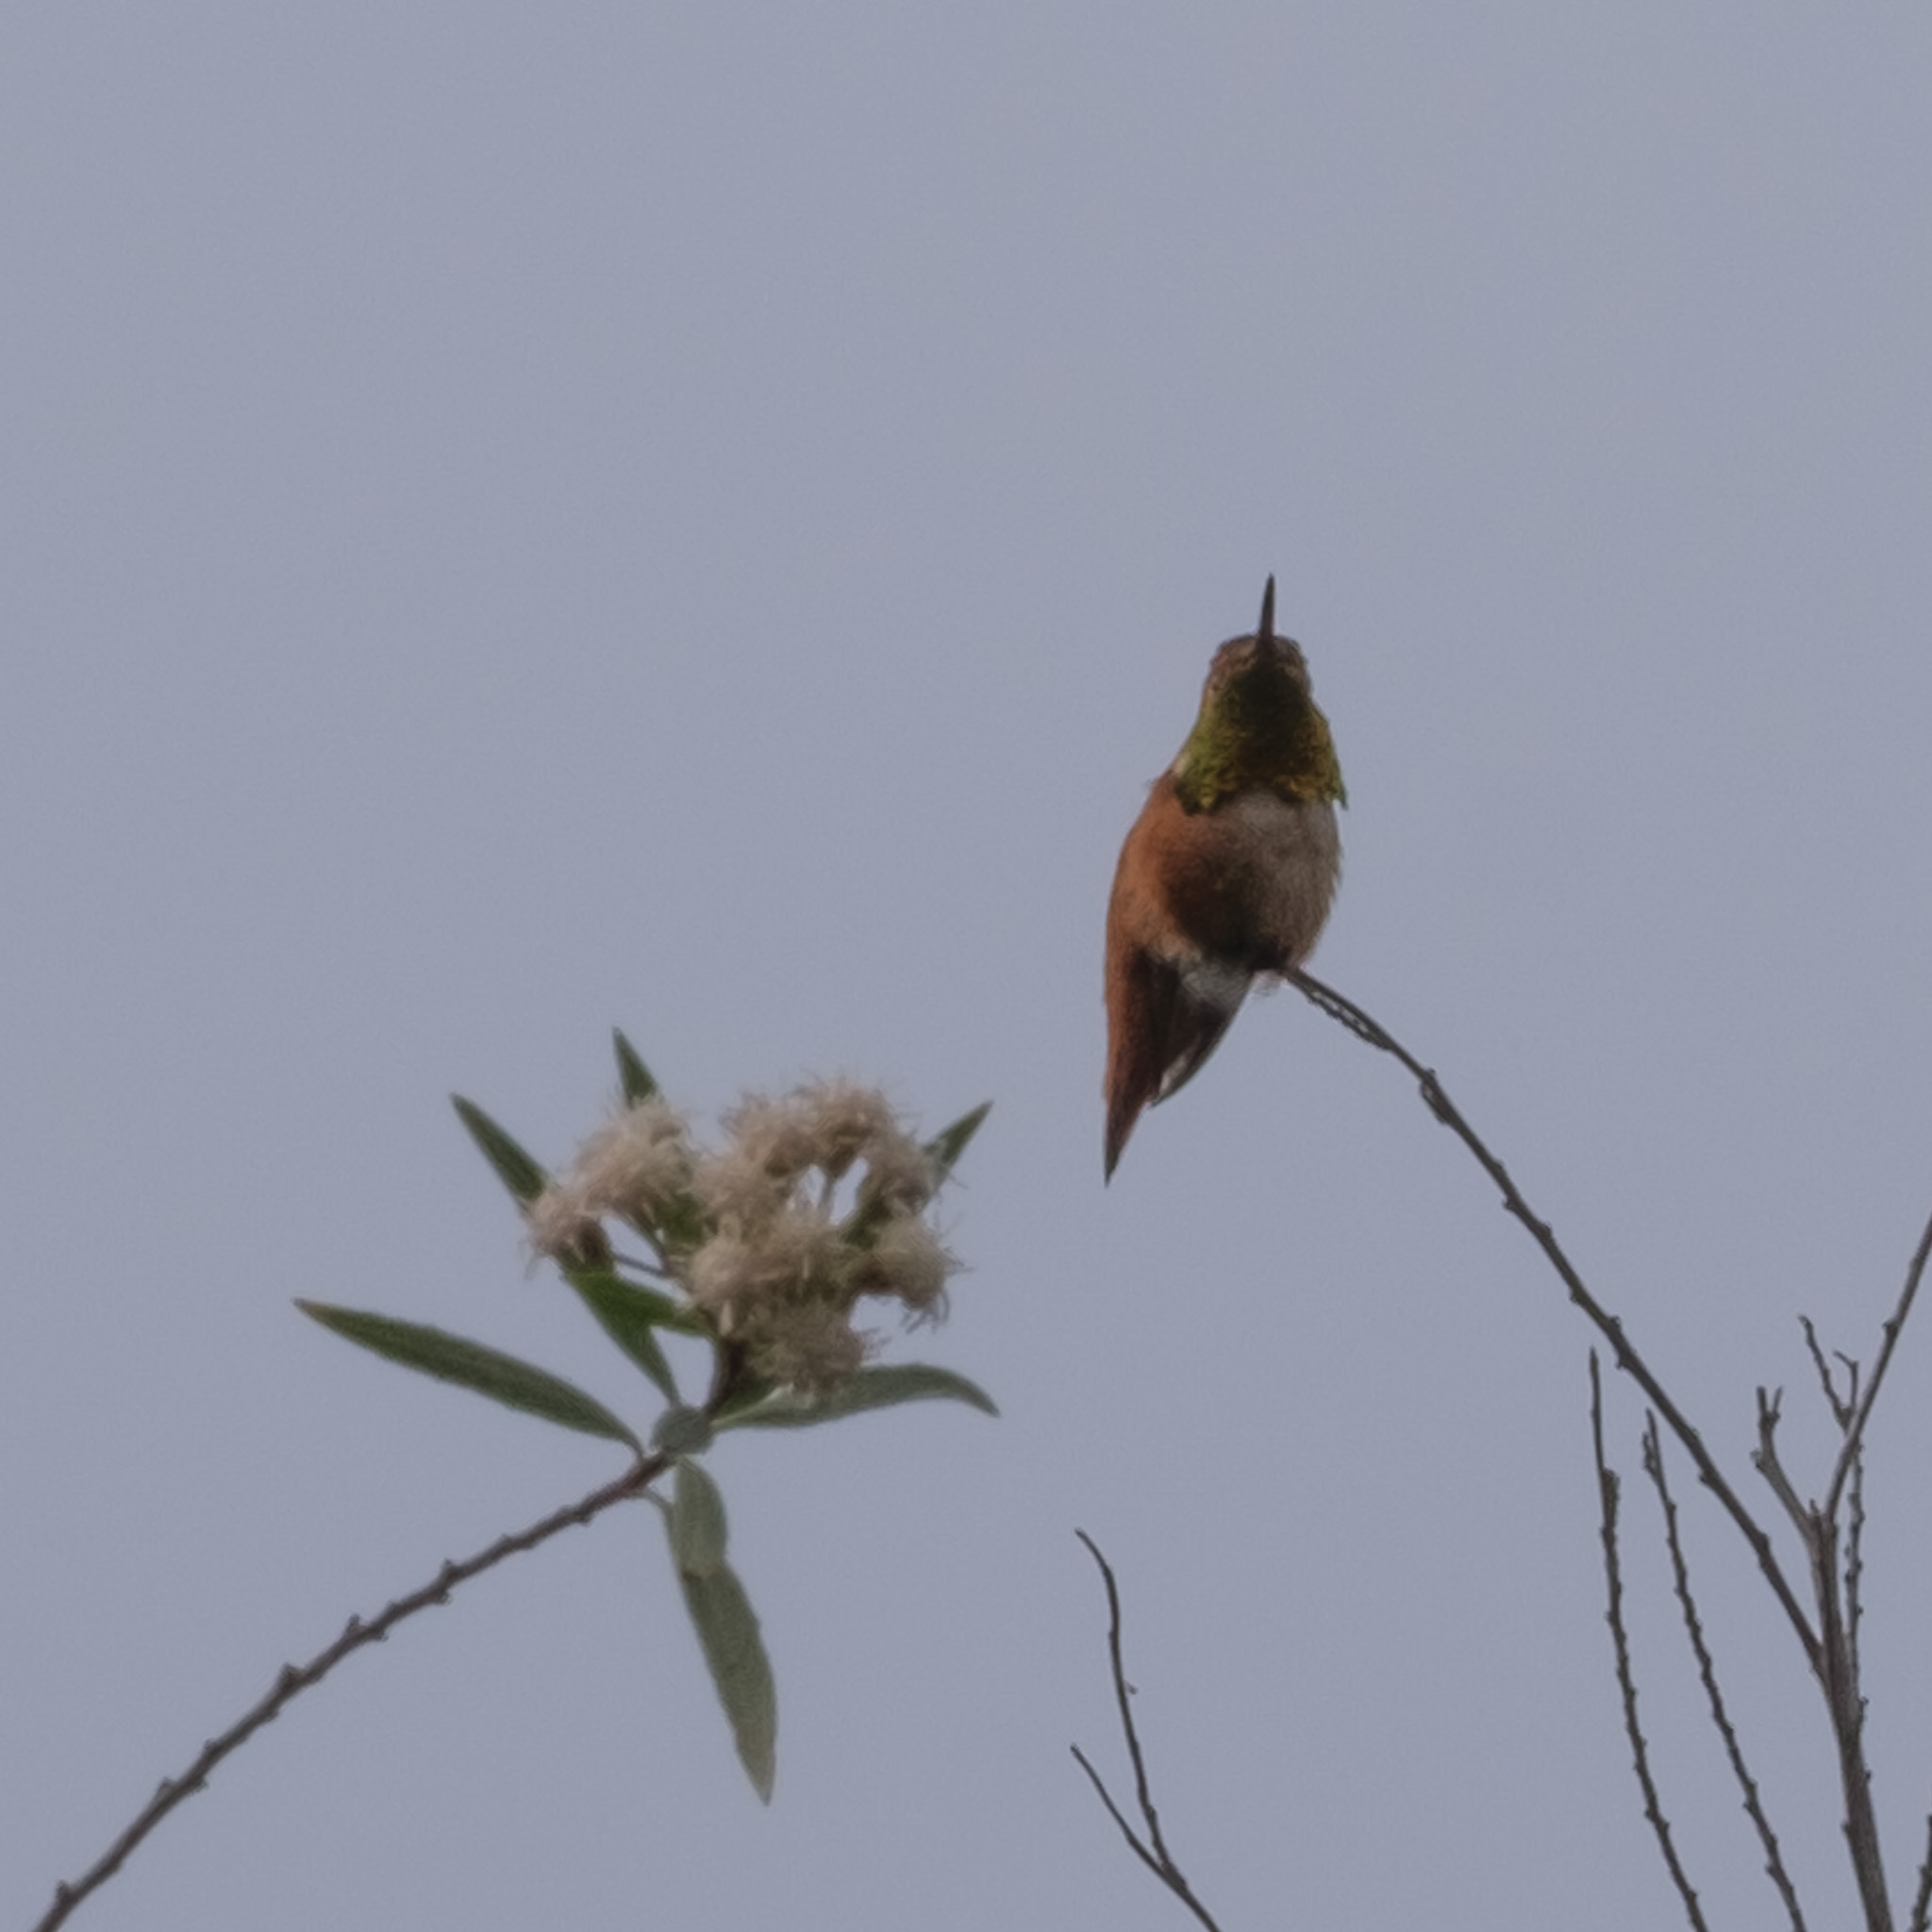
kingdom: Animalia
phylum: Chordata
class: Aves
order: Apodiformes
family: Trochilidae
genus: Selasphorus
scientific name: Selasphorus
